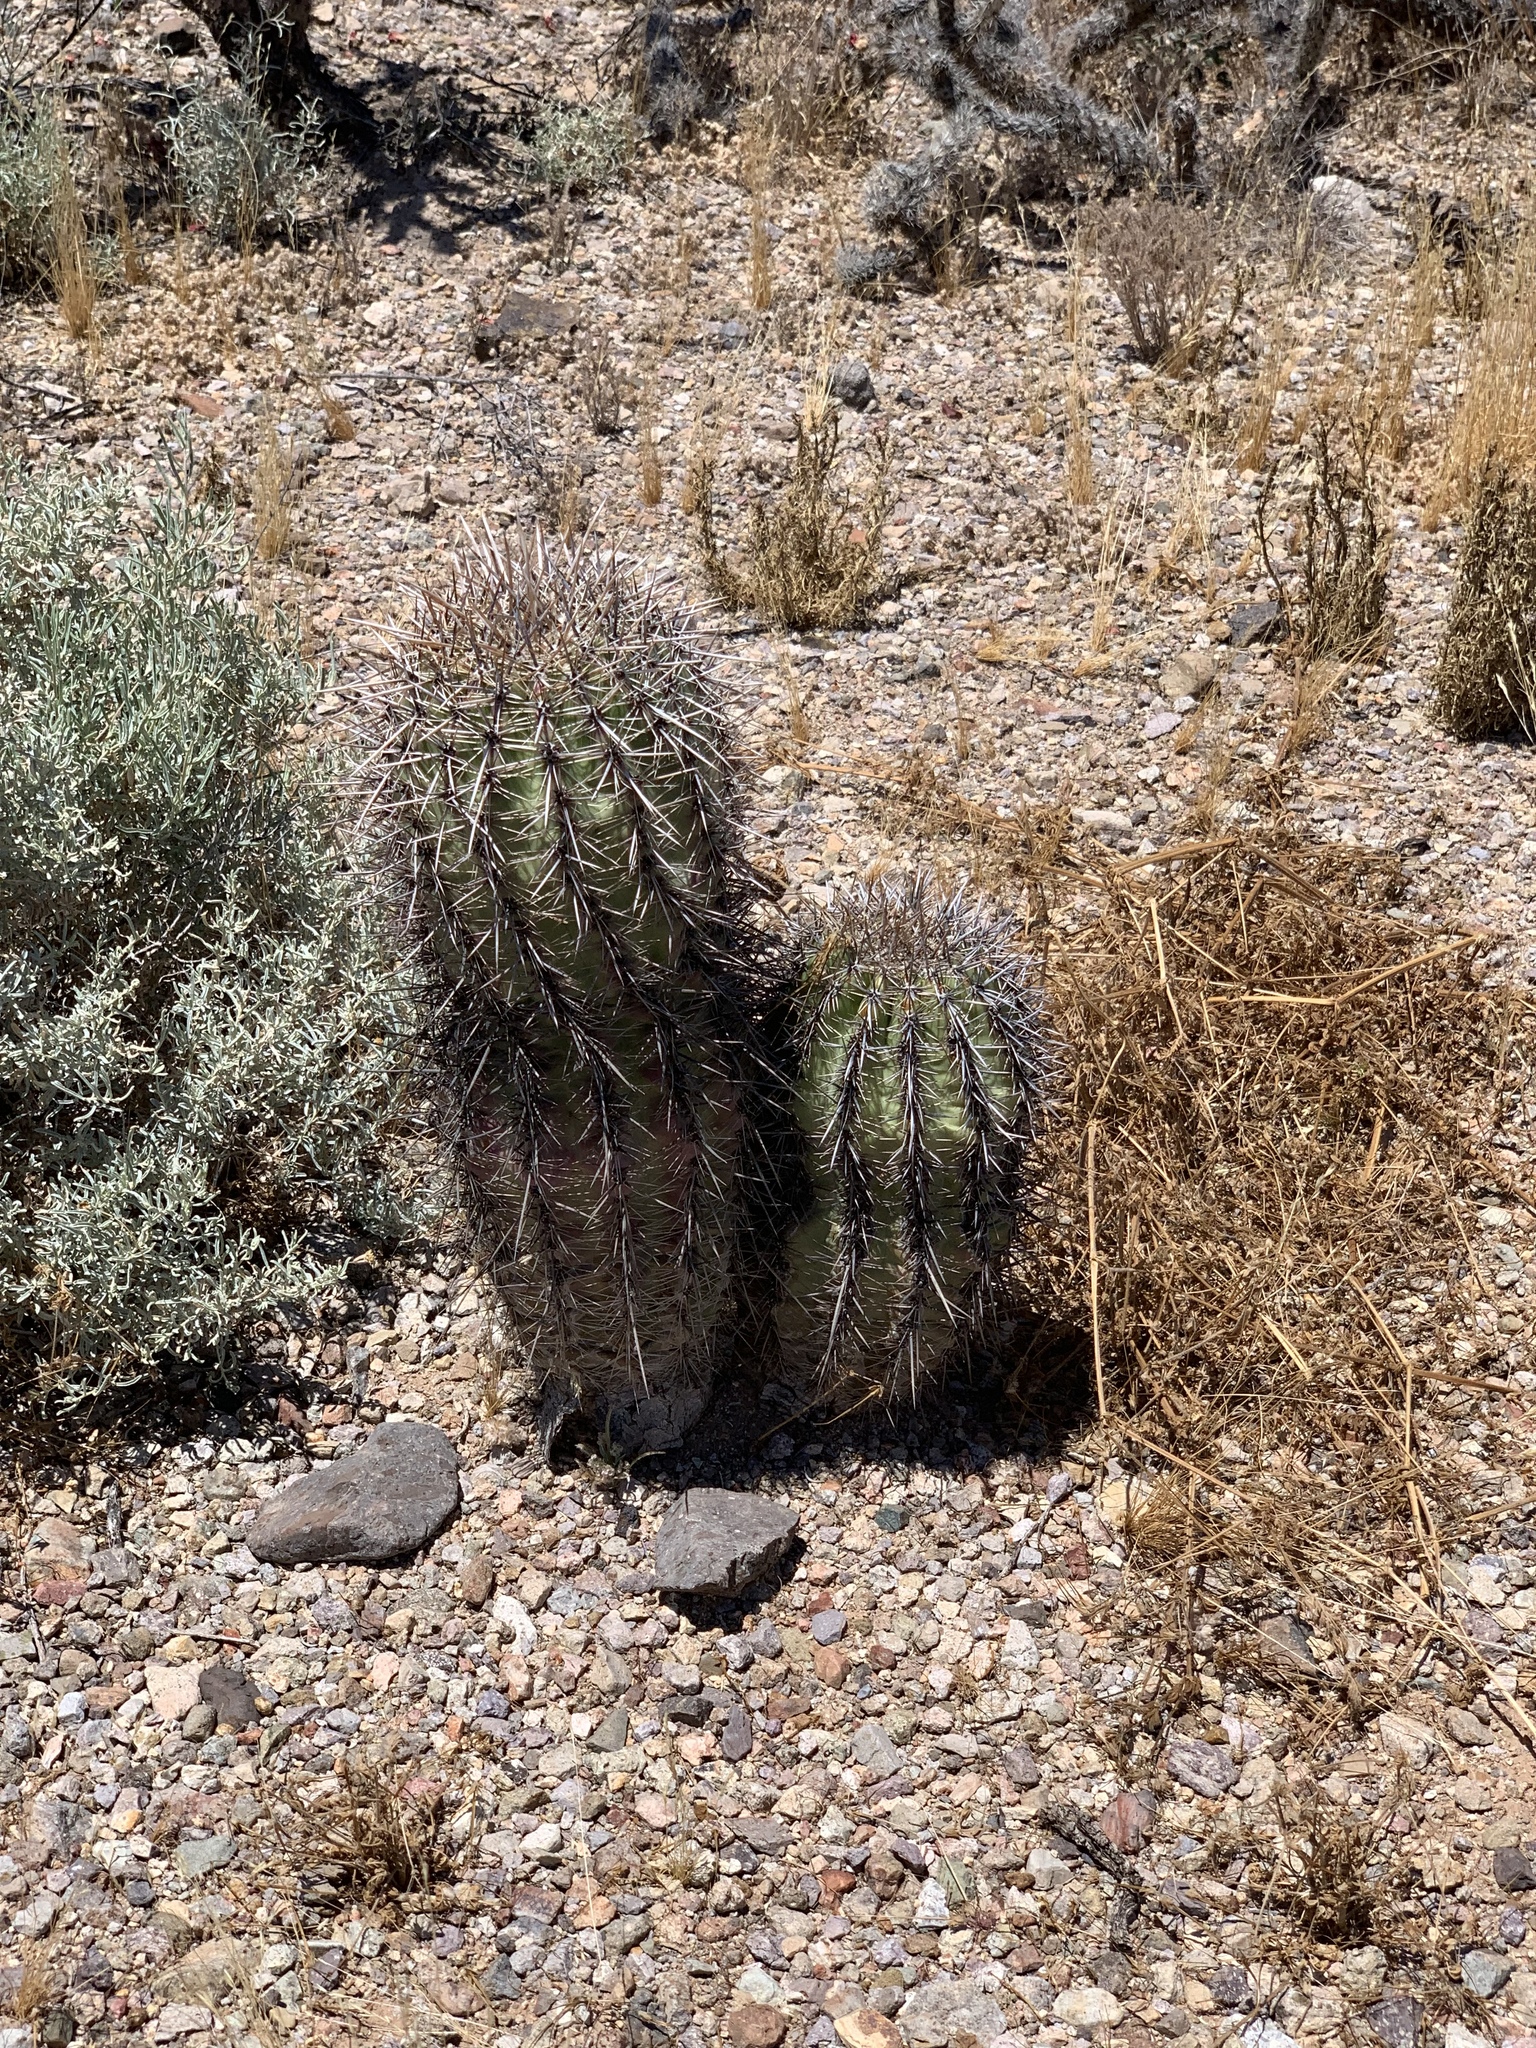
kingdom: Plantae
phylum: Tracheophyta
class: Magnoliopsida
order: Caryophyllales
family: Cactaceae
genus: Carnegiea
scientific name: Carnegiea gigantea
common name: Saguaro
